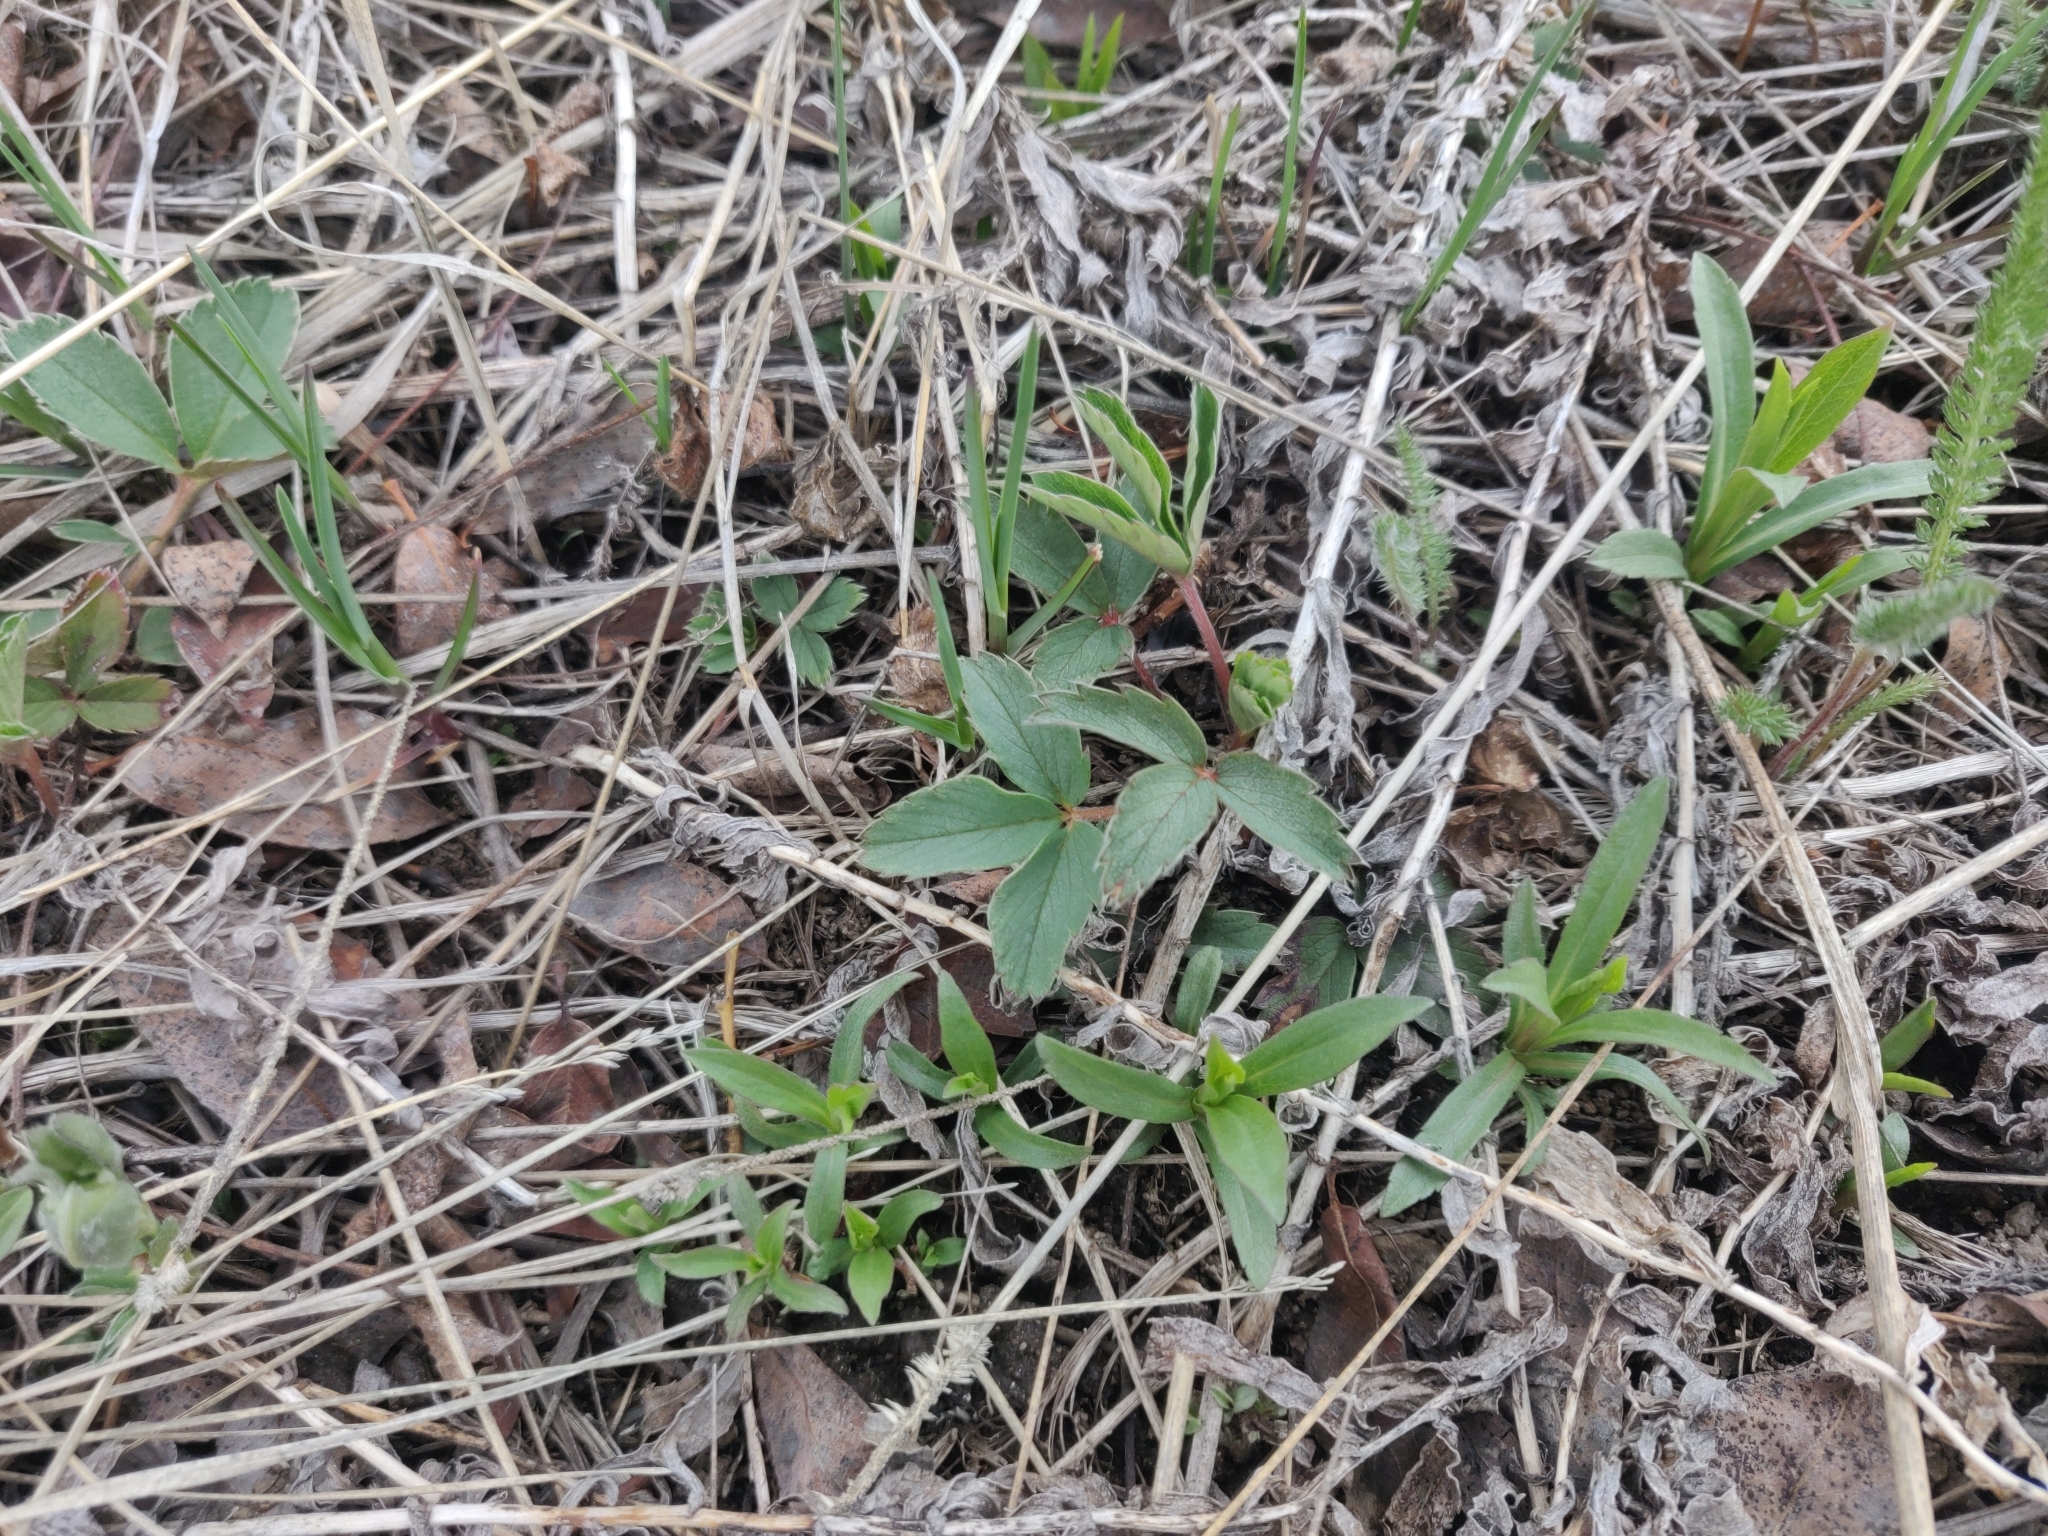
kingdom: Plantae
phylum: Tracheophyta
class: Magnoliopsida
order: Rosales
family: Rosaceae
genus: Fragaria
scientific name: Fragaria virginiana
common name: Thickleaved wild strawberry
